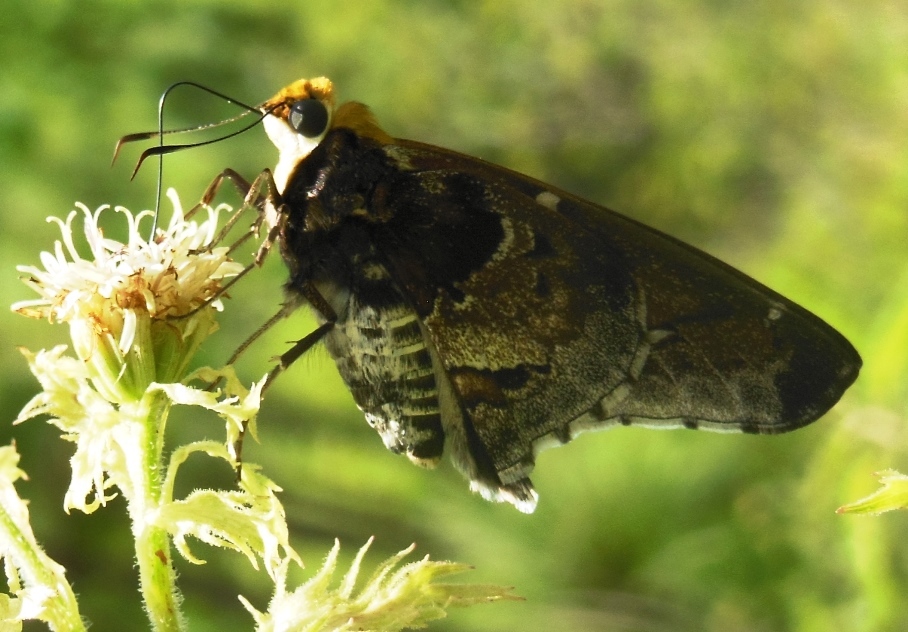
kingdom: Animalia
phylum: Arthropoda
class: Insecta
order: Lepidoptera
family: Hesperiidae
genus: Proteides
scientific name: Proteides mercurius
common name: Mercurial skipper
